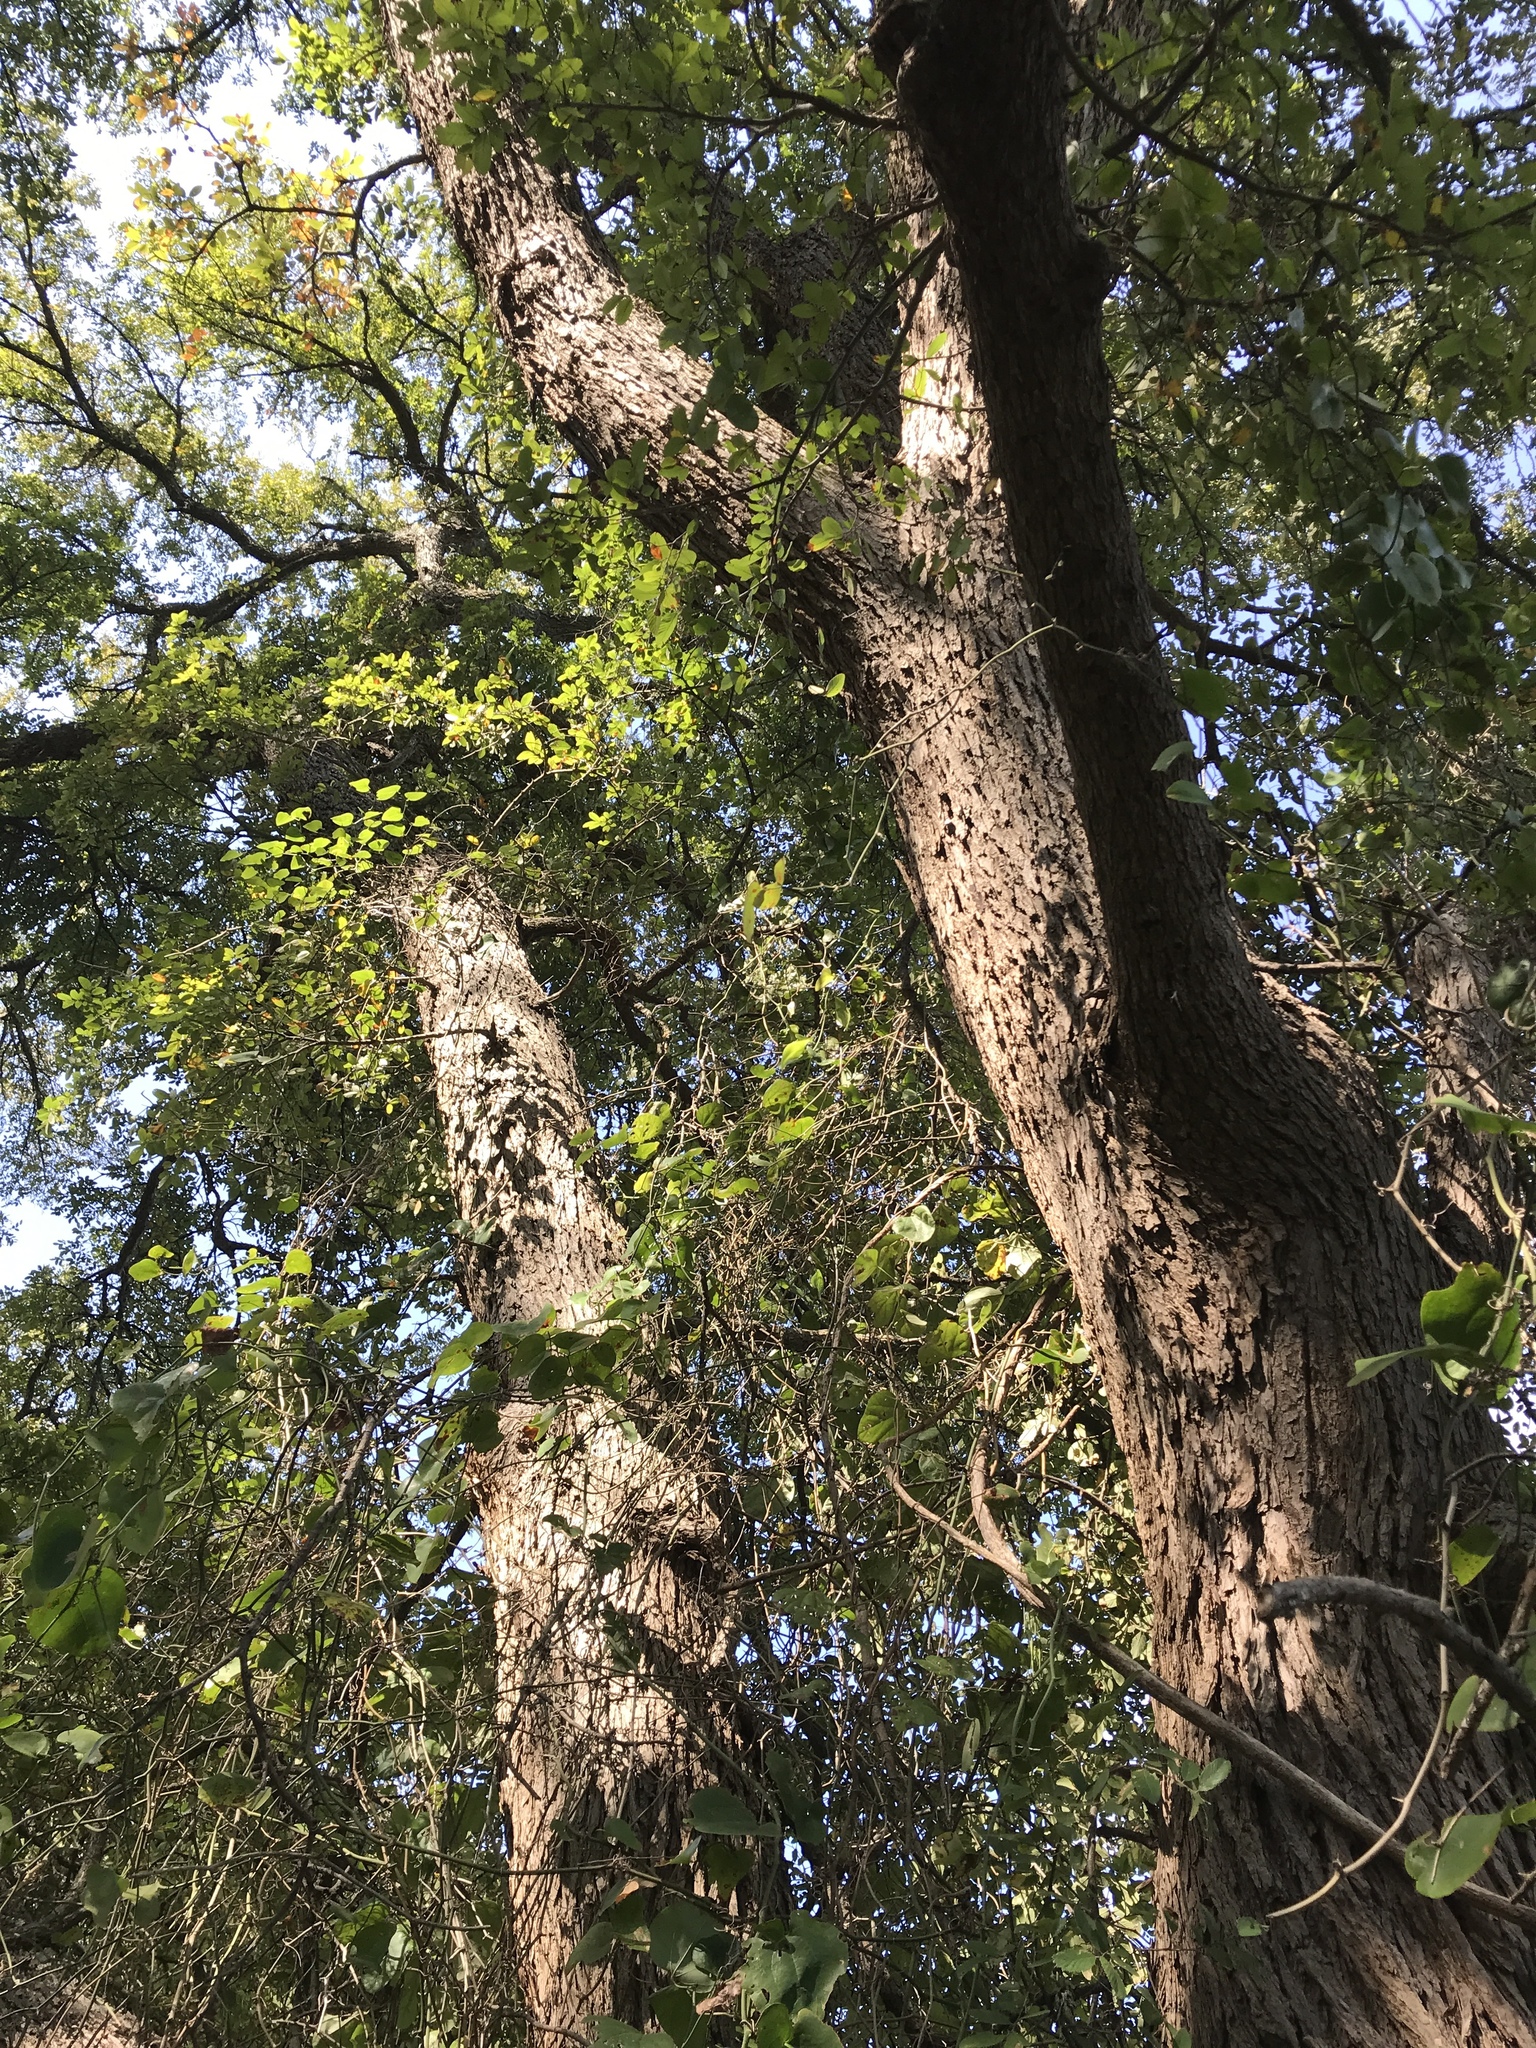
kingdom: Plantae
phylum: Tracheophyta
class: Magnoliopsida
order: Rosales
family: Ulmaceae
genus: Ulmus
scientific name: Ulmus crassifolia
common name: Basket elm
